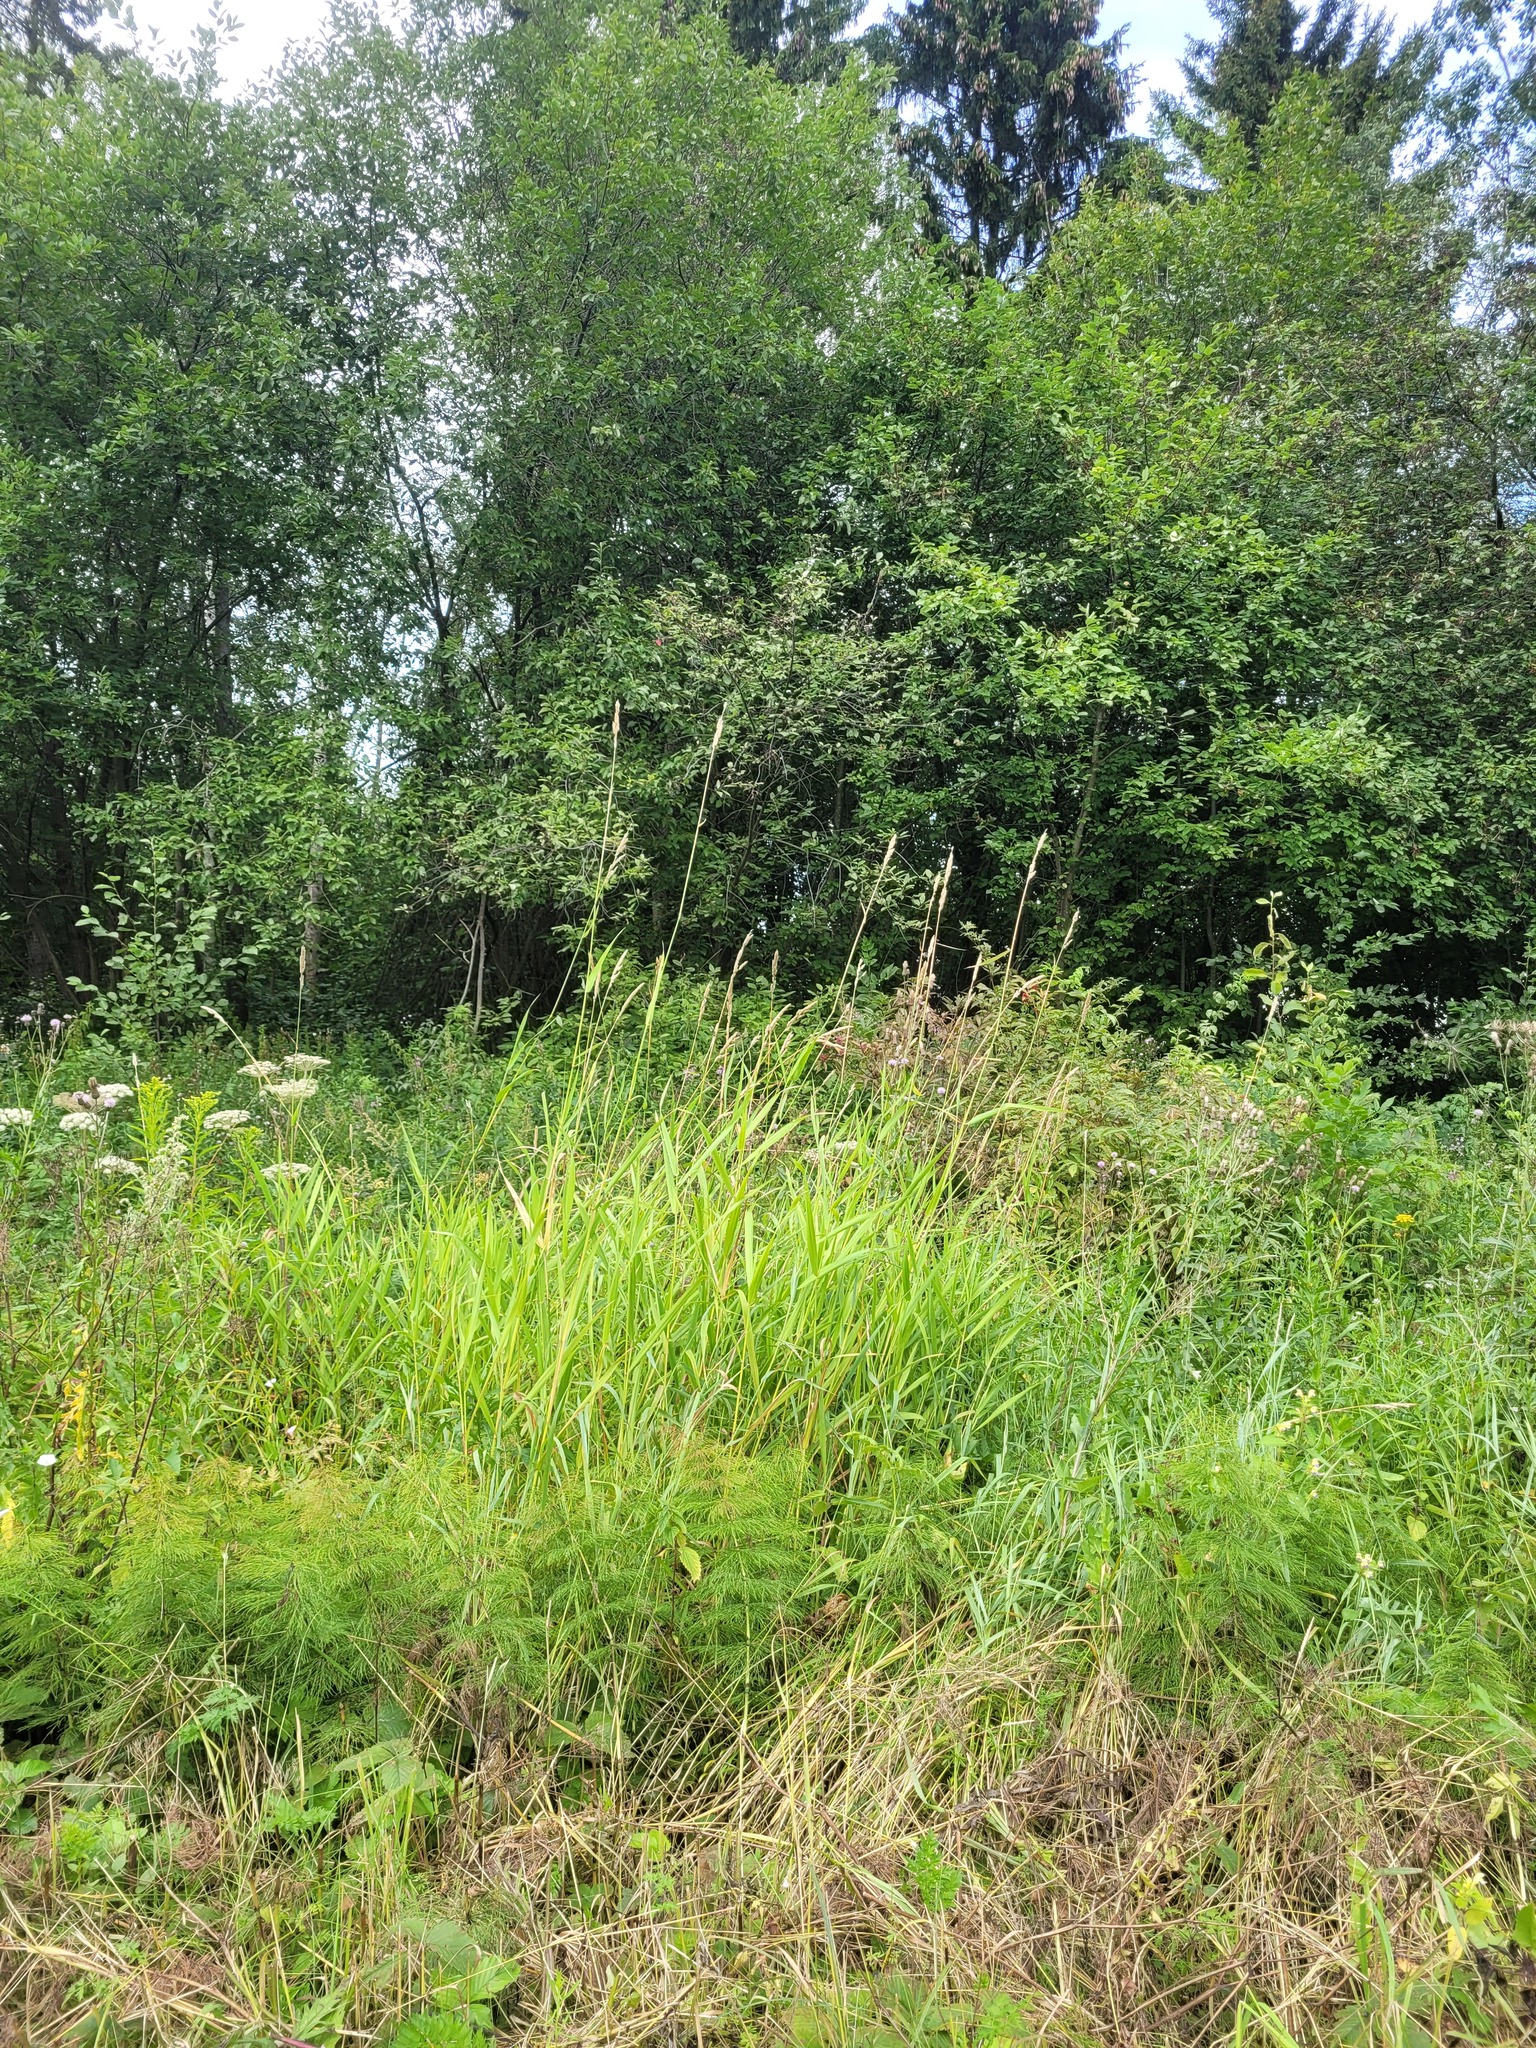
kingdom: Plantae
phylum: Tracheophyta
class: Liliopsida
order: Poales
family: Poaceae
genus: Phalaris
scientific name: Phalaris arundinacea
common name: Reed canary-grass
